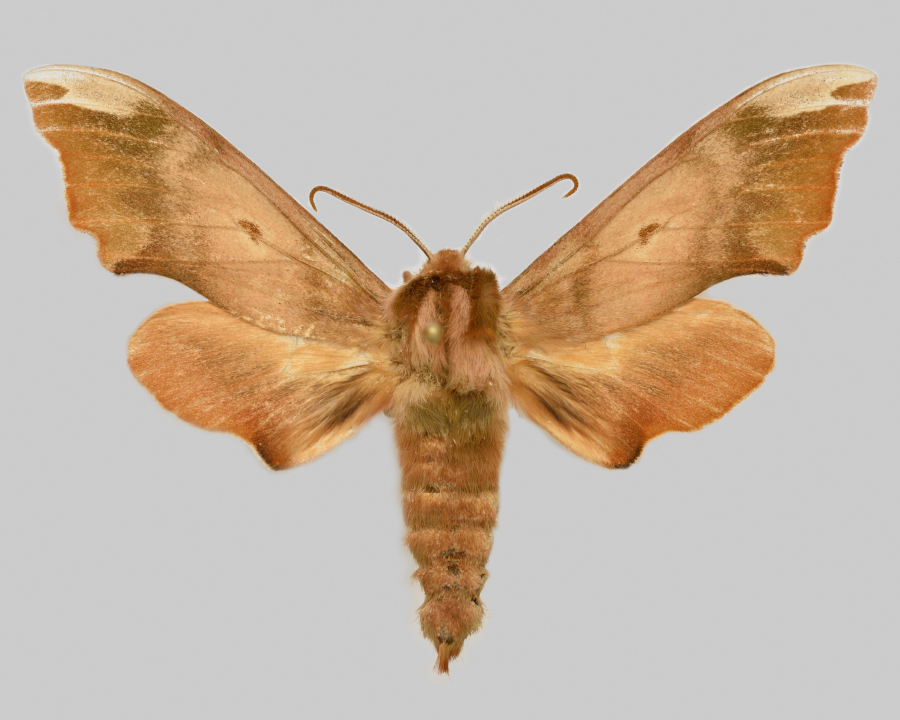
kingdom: Animalia
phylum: Arthropoda
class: Insecta
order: Lepidoptera
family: Sphingidae
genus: Mimas
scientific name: Mimas tiliae
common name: Lime hawk-moth
